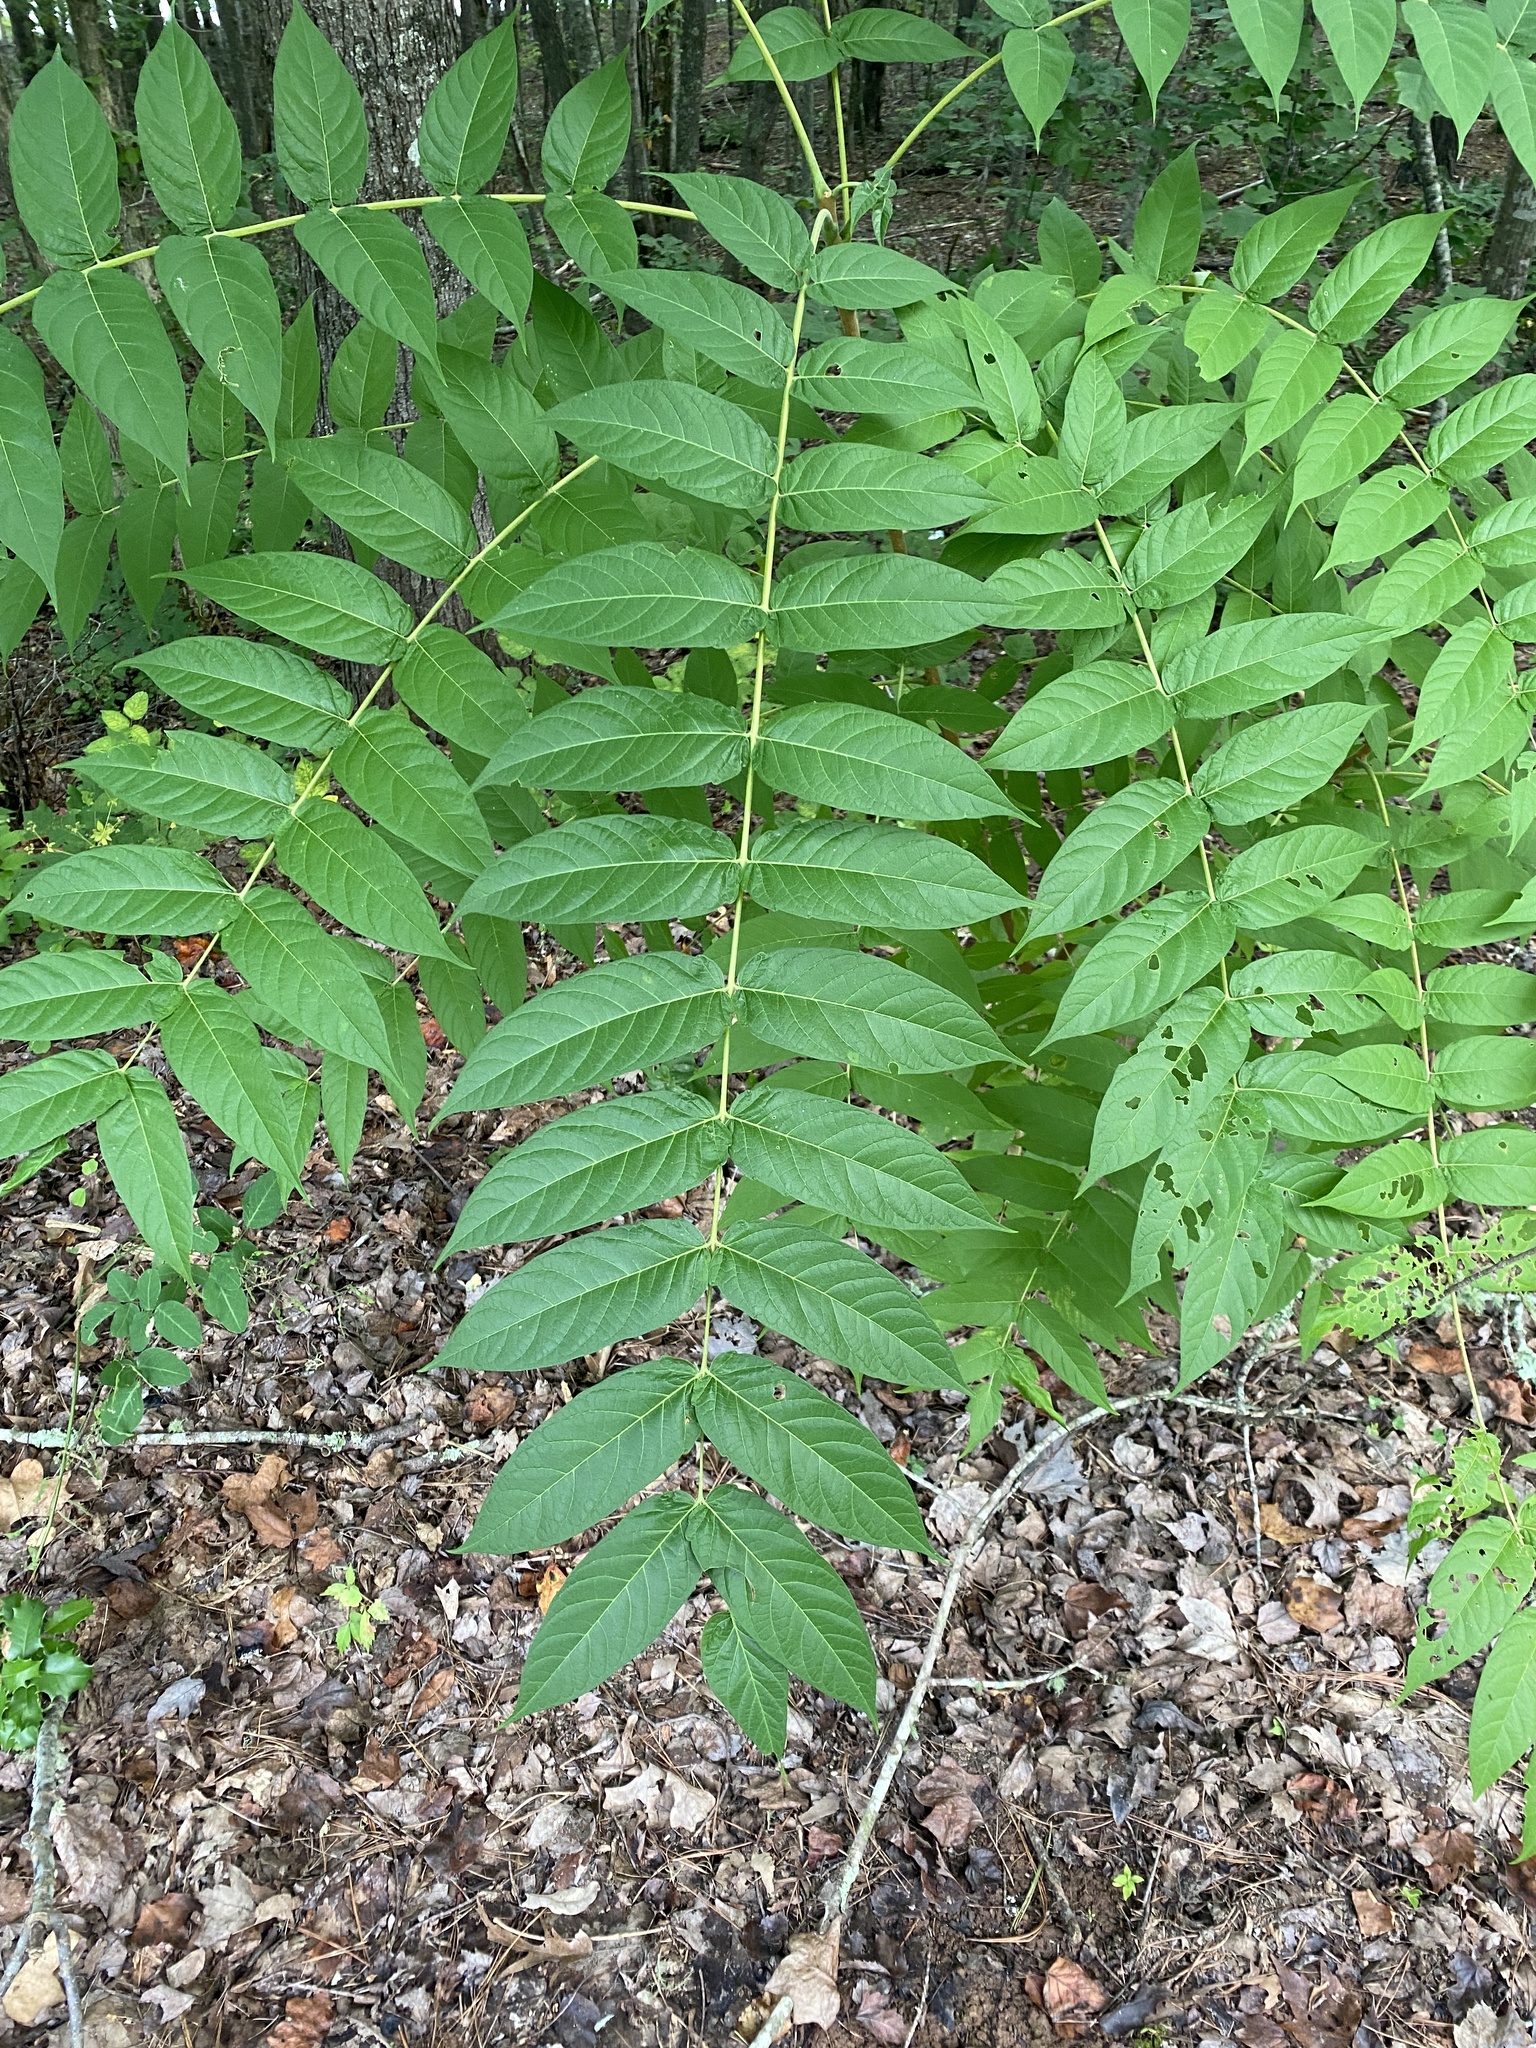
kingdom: Plantae
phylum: Tracheophyta
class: Magnoliopsida
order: Sapindales
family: Simaroubaceae
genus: Ailanthus
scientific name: Ailanthus altissima
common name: Tree-of-heaven
